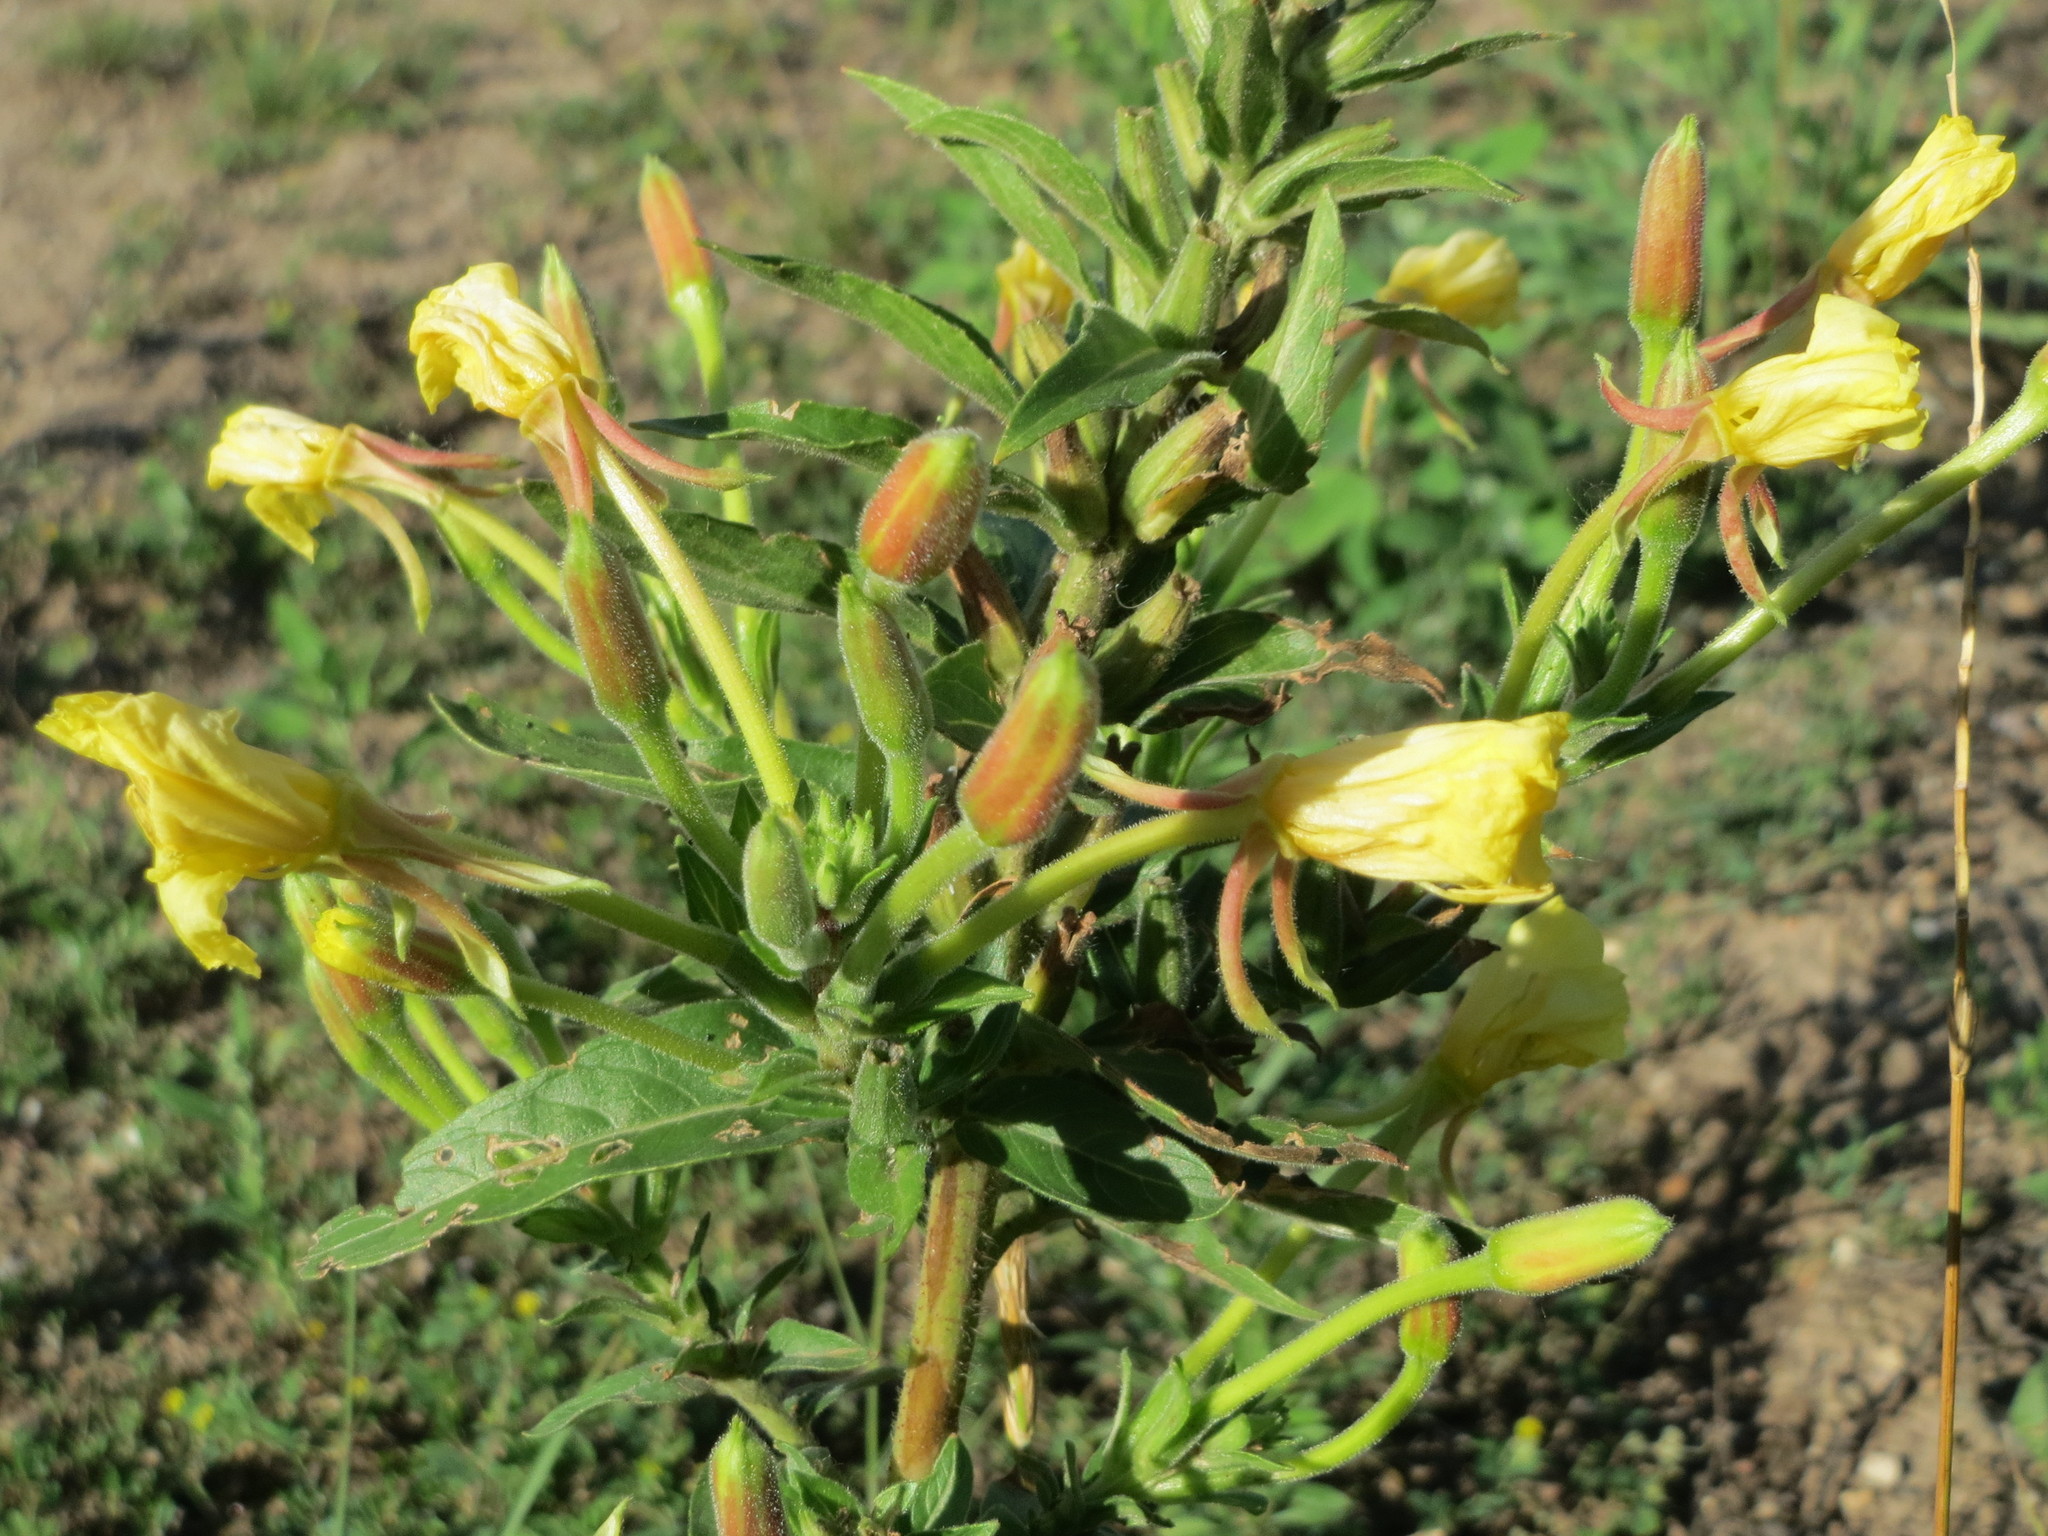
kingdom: Plantae
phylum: Tracheophyta
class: Magnoliopsida
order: Myrtales
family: Onagraceae
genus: Oenothera
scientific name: Oenothera biennis
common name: Common evening-primrose
